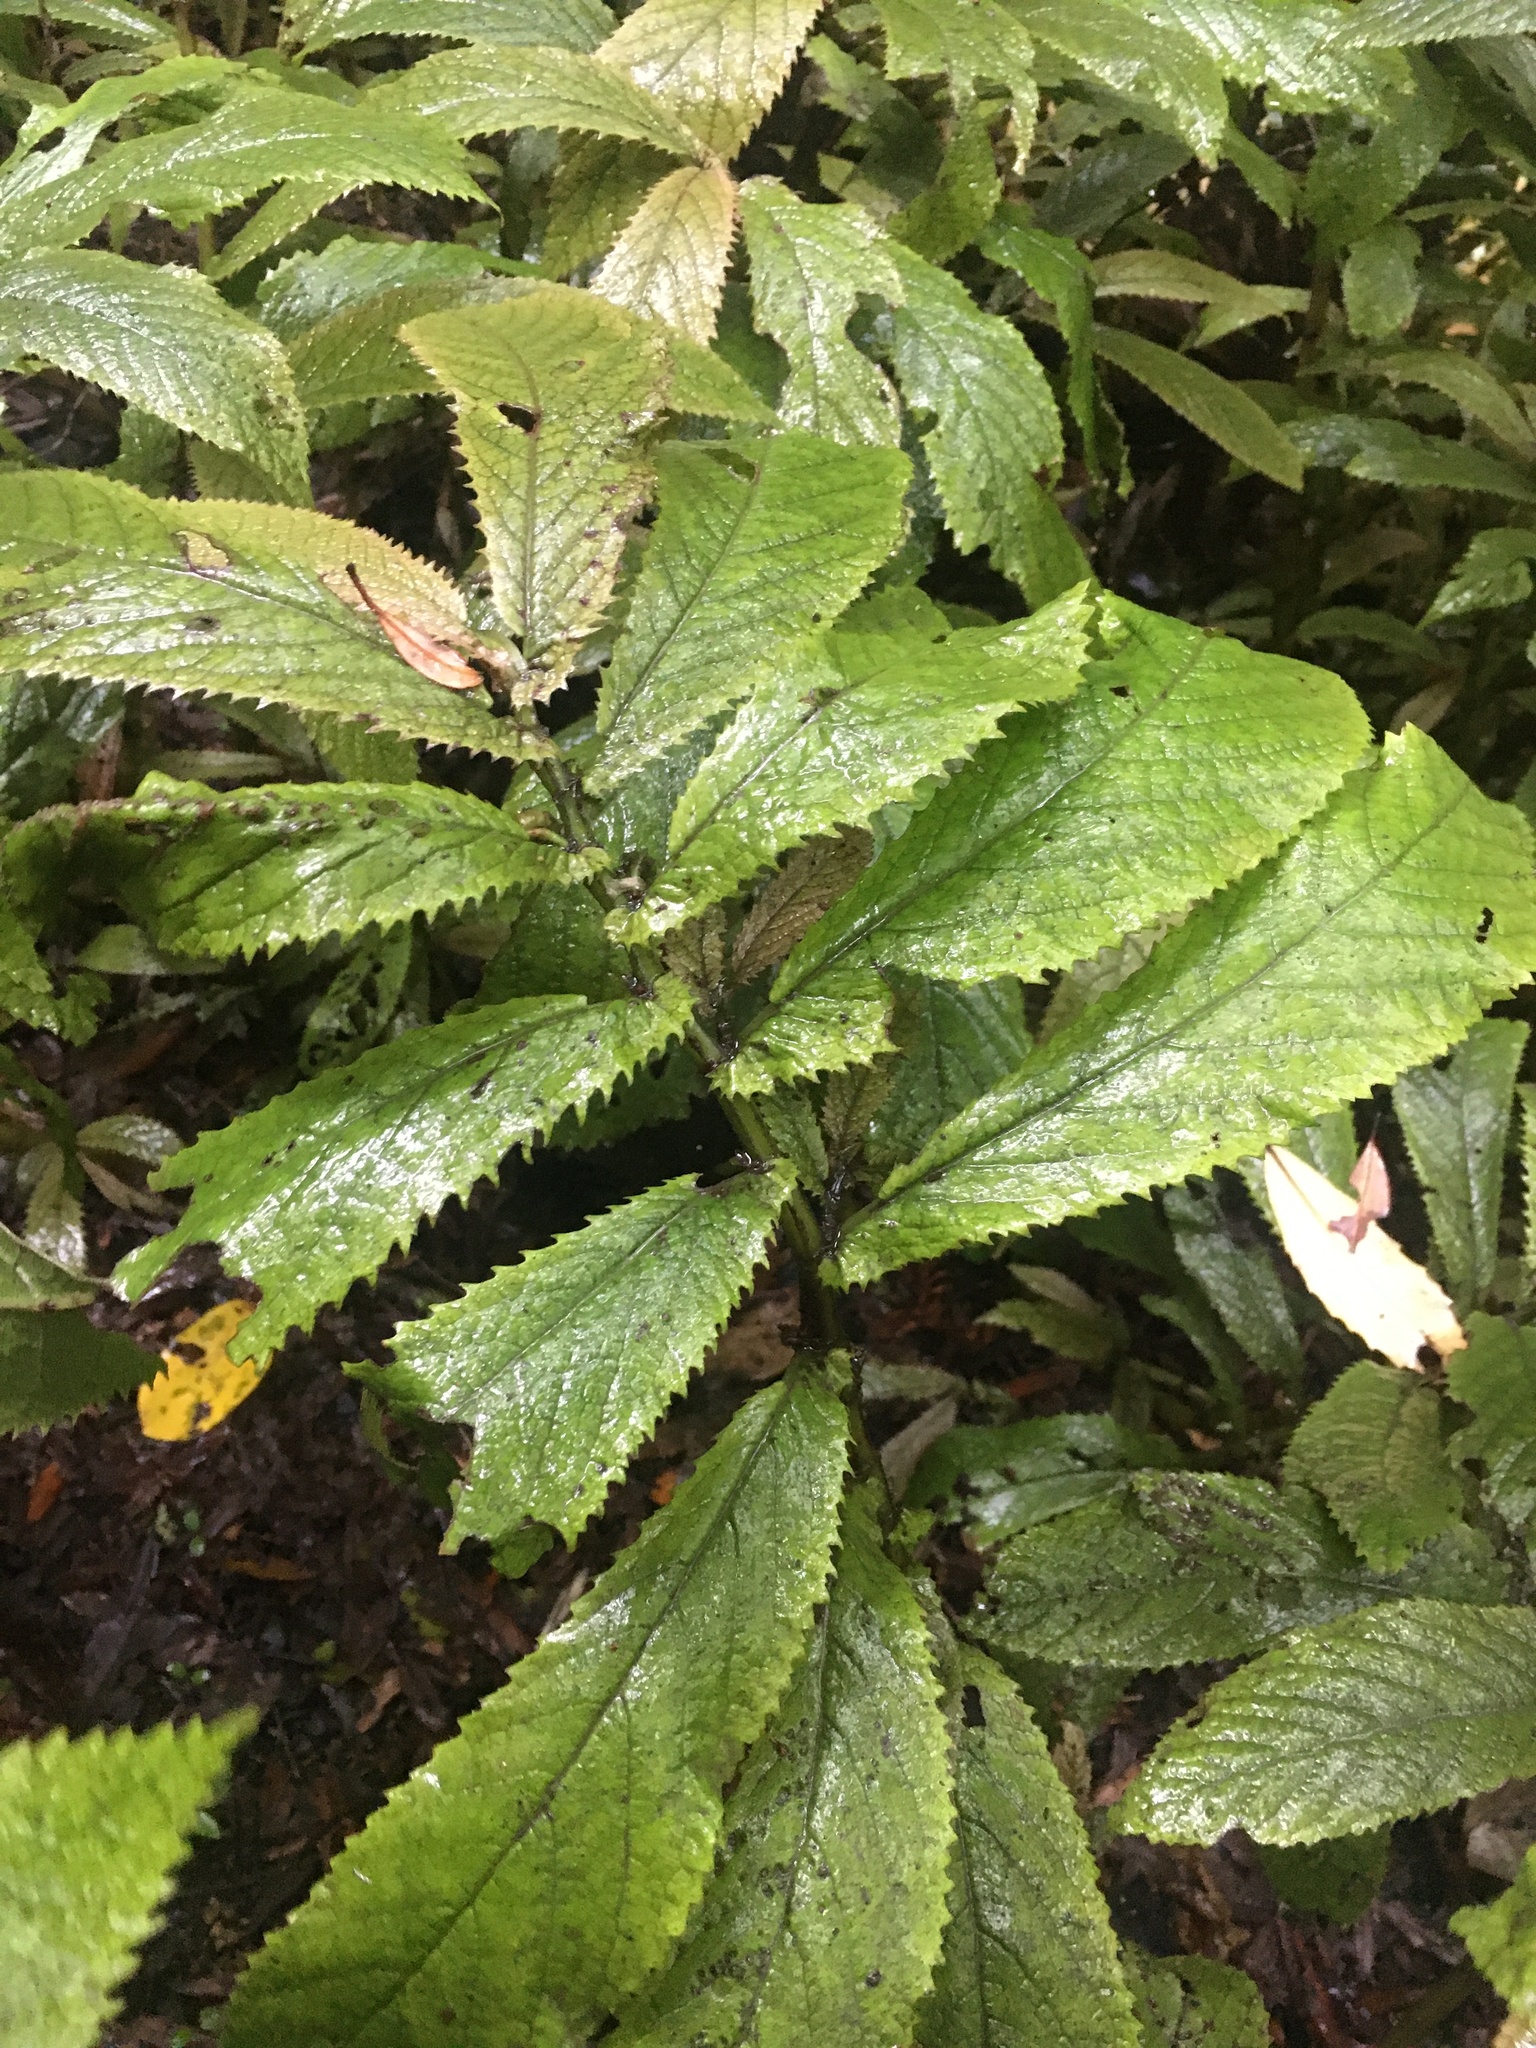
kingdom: Plantae
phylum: Tracheophyta
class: Magnoliopsida
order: Rosales
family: Urticaceae
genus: Elatostema
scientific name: Elatostema rugosum
